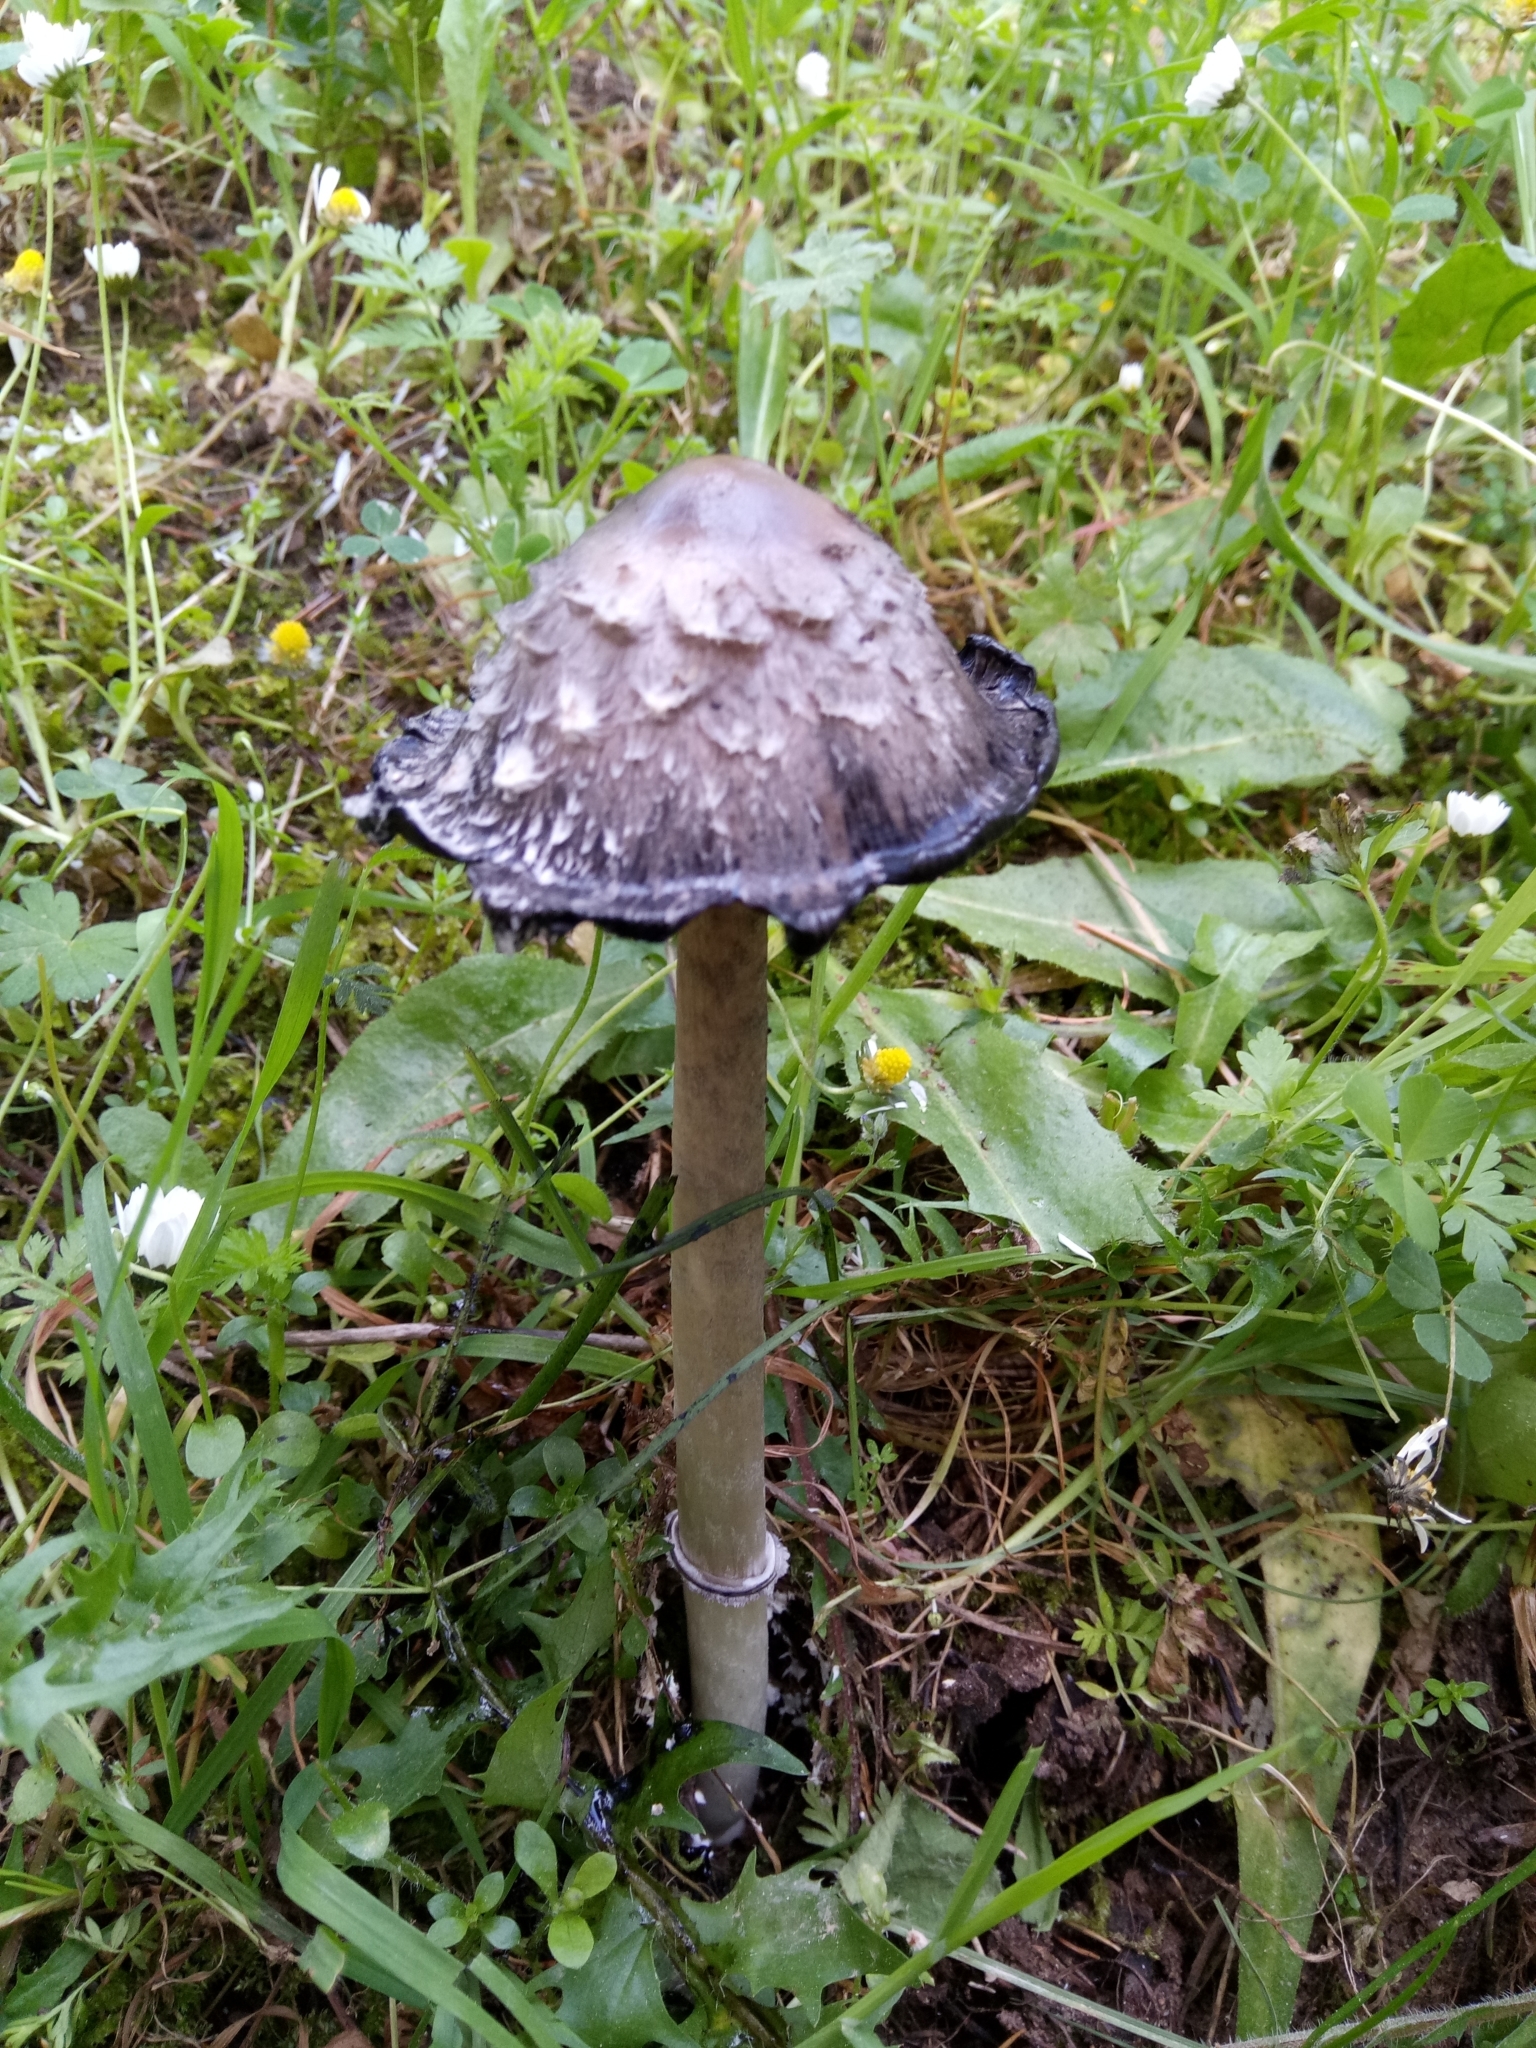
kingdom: Fungi
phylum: Basidiomycota
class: Agaricomycetes
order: Agaricales
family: Agaricaceae
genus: Coprinus
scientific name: Coprinus comatus
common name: Lawyer's wig
